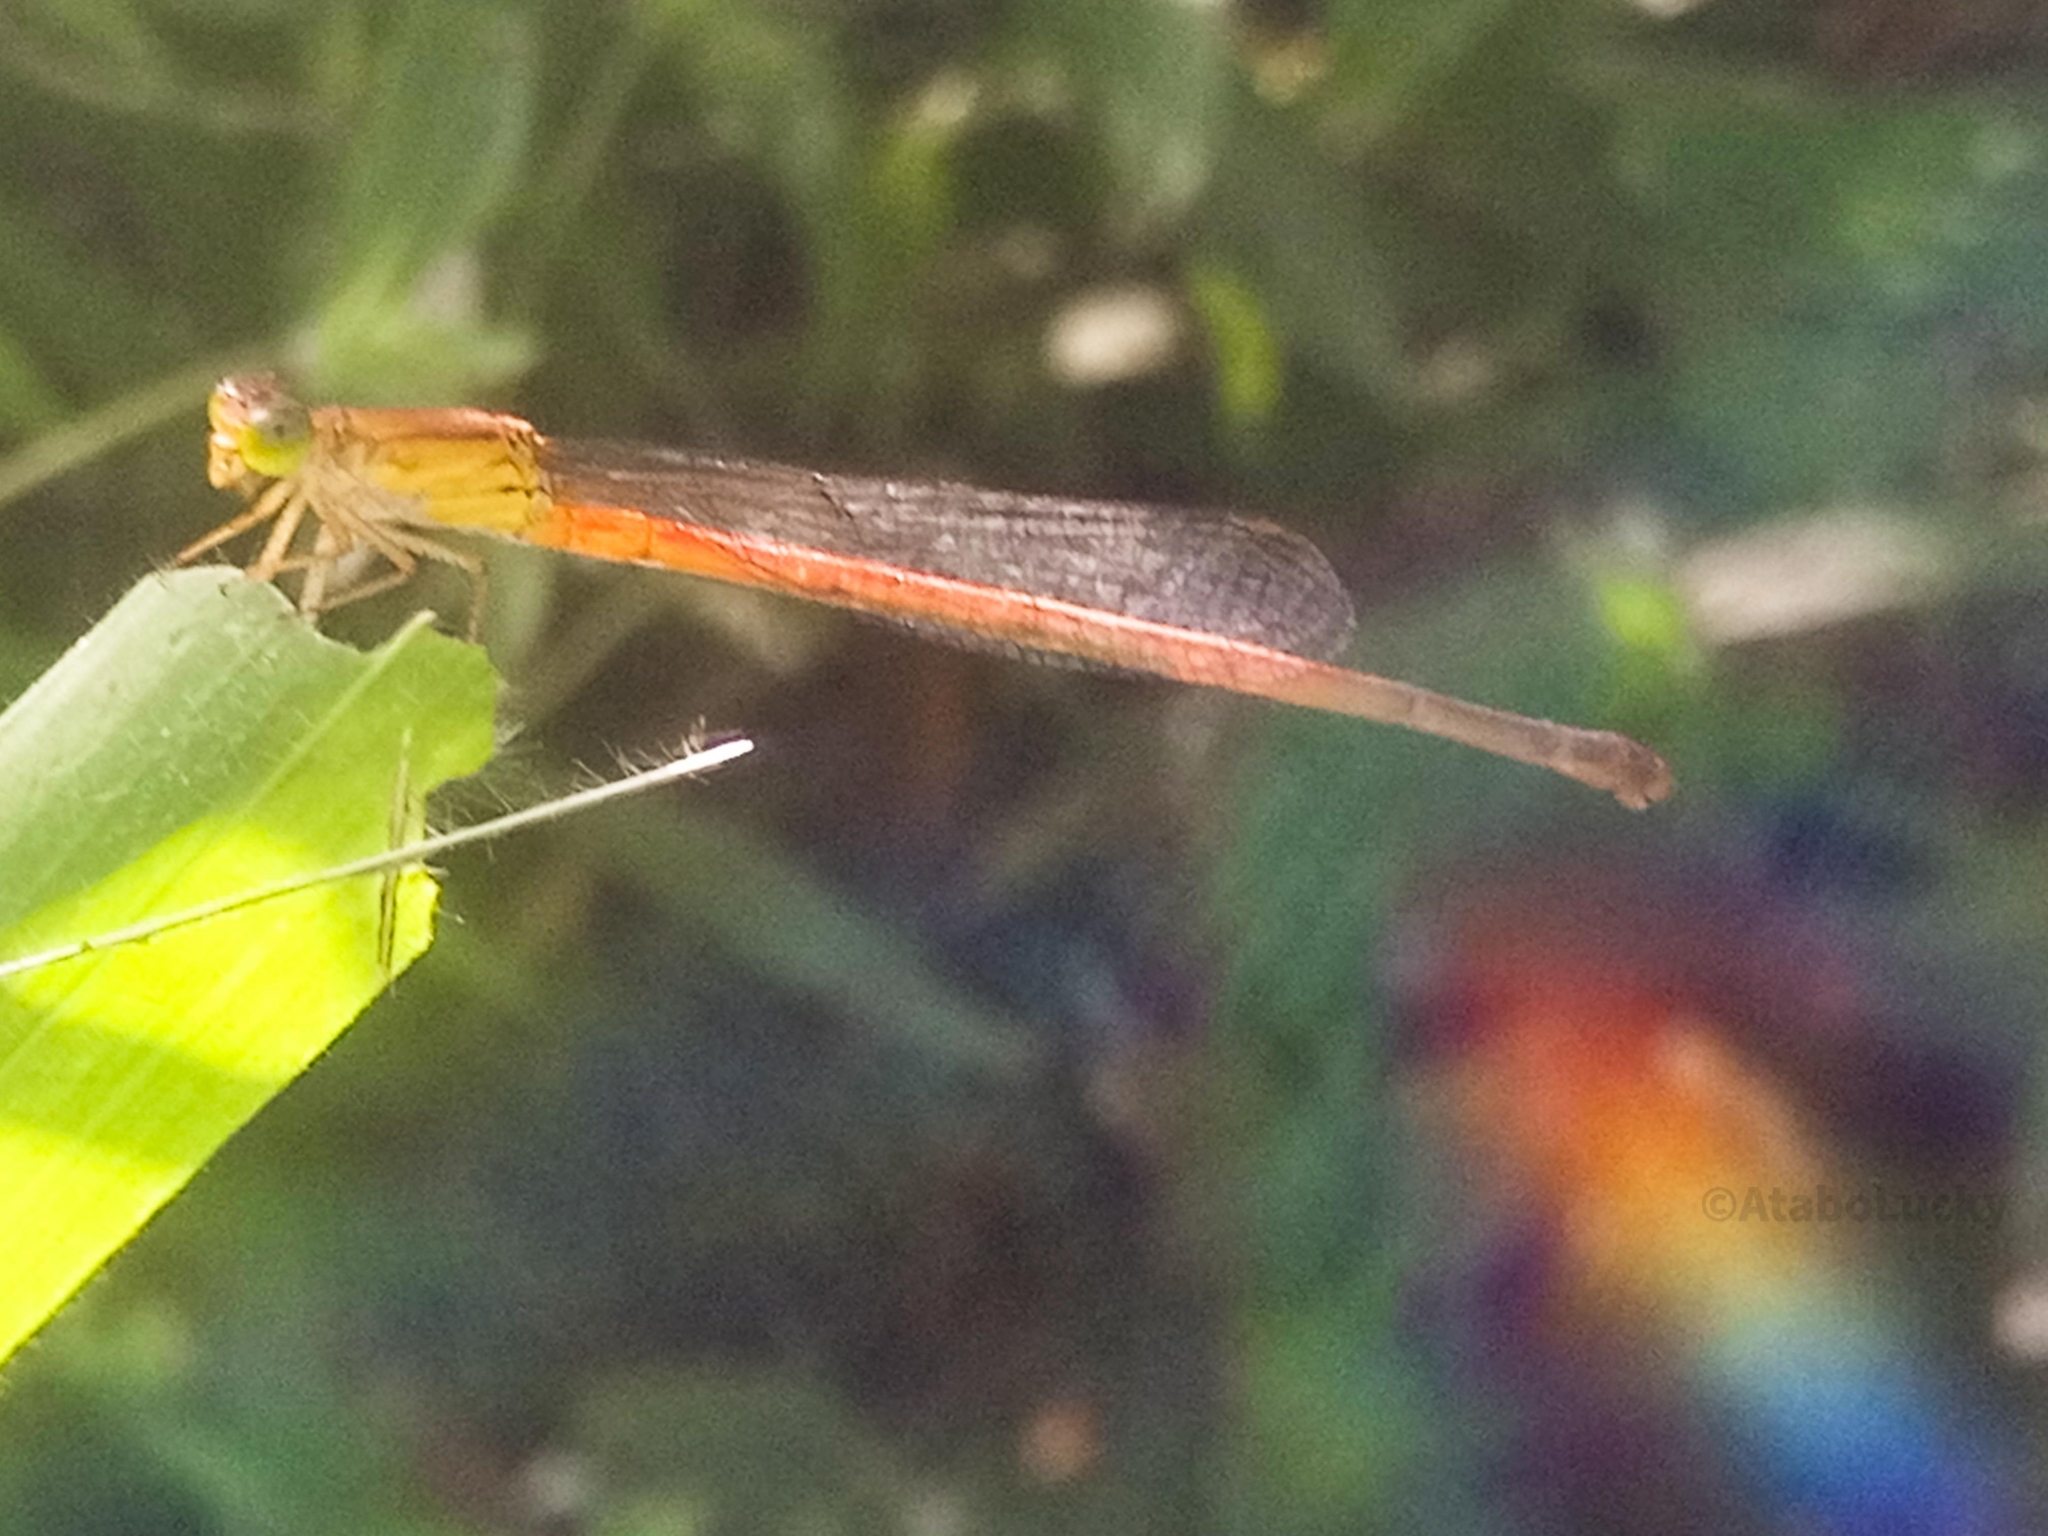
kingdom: Animalia
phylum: Arthropoda
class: Insecta
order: Odonata
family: Coenagrionidae
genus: Ceriagrion
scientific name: Ceriagrion glabrum
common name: Common pond damsel
